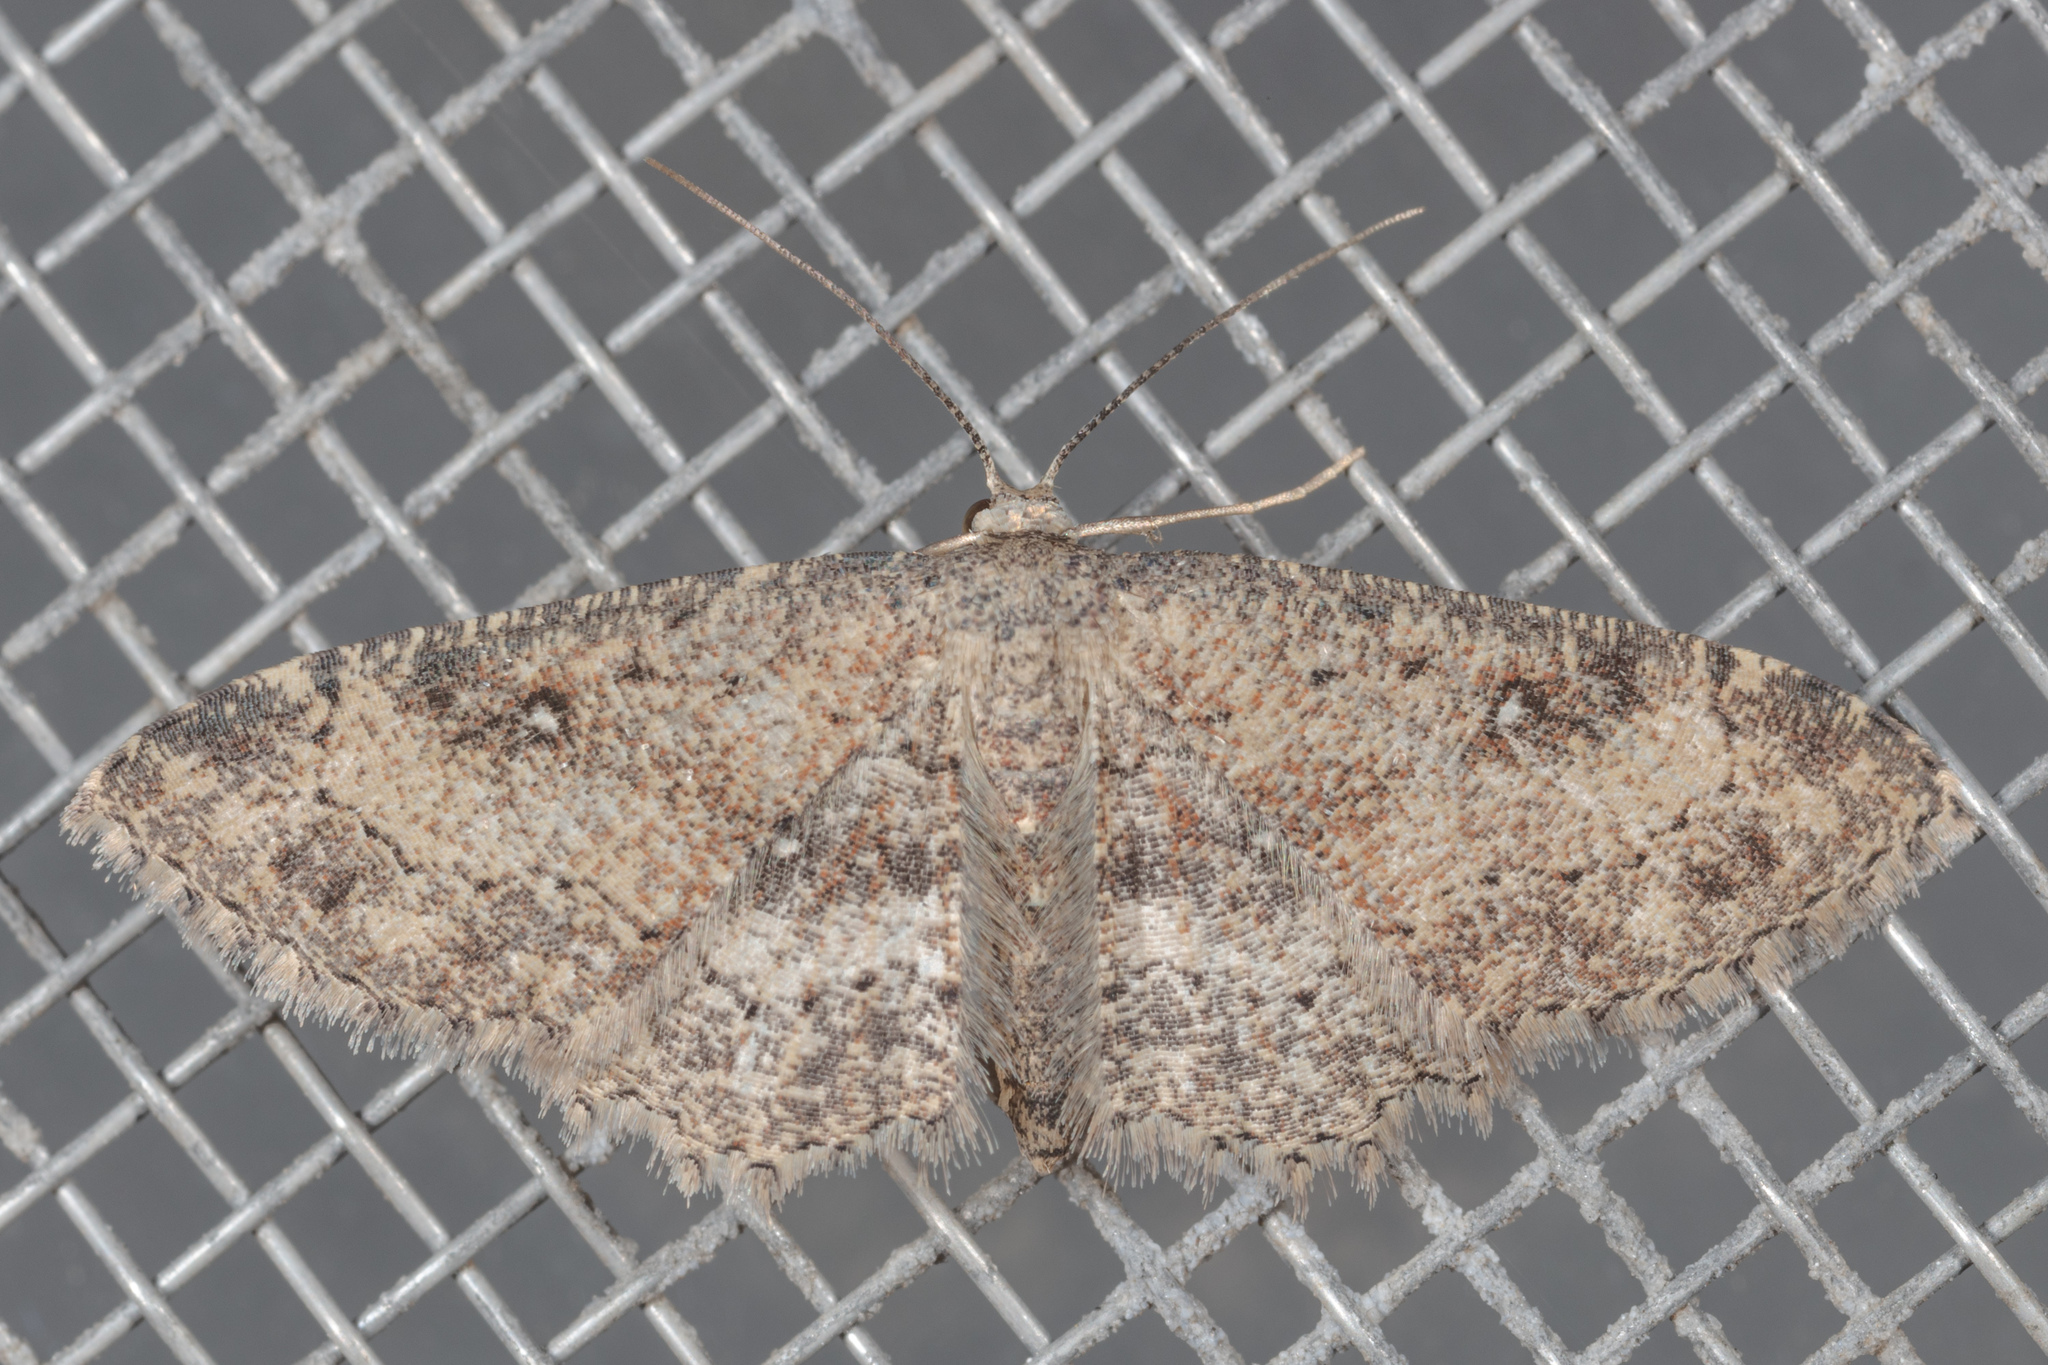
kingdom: Animalia
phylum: Arthropoda
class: Insecta
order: Lepidoptera
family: Geometridae
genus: Cyclophora
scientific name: Cyclophora nanaria
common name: Cankerworm
